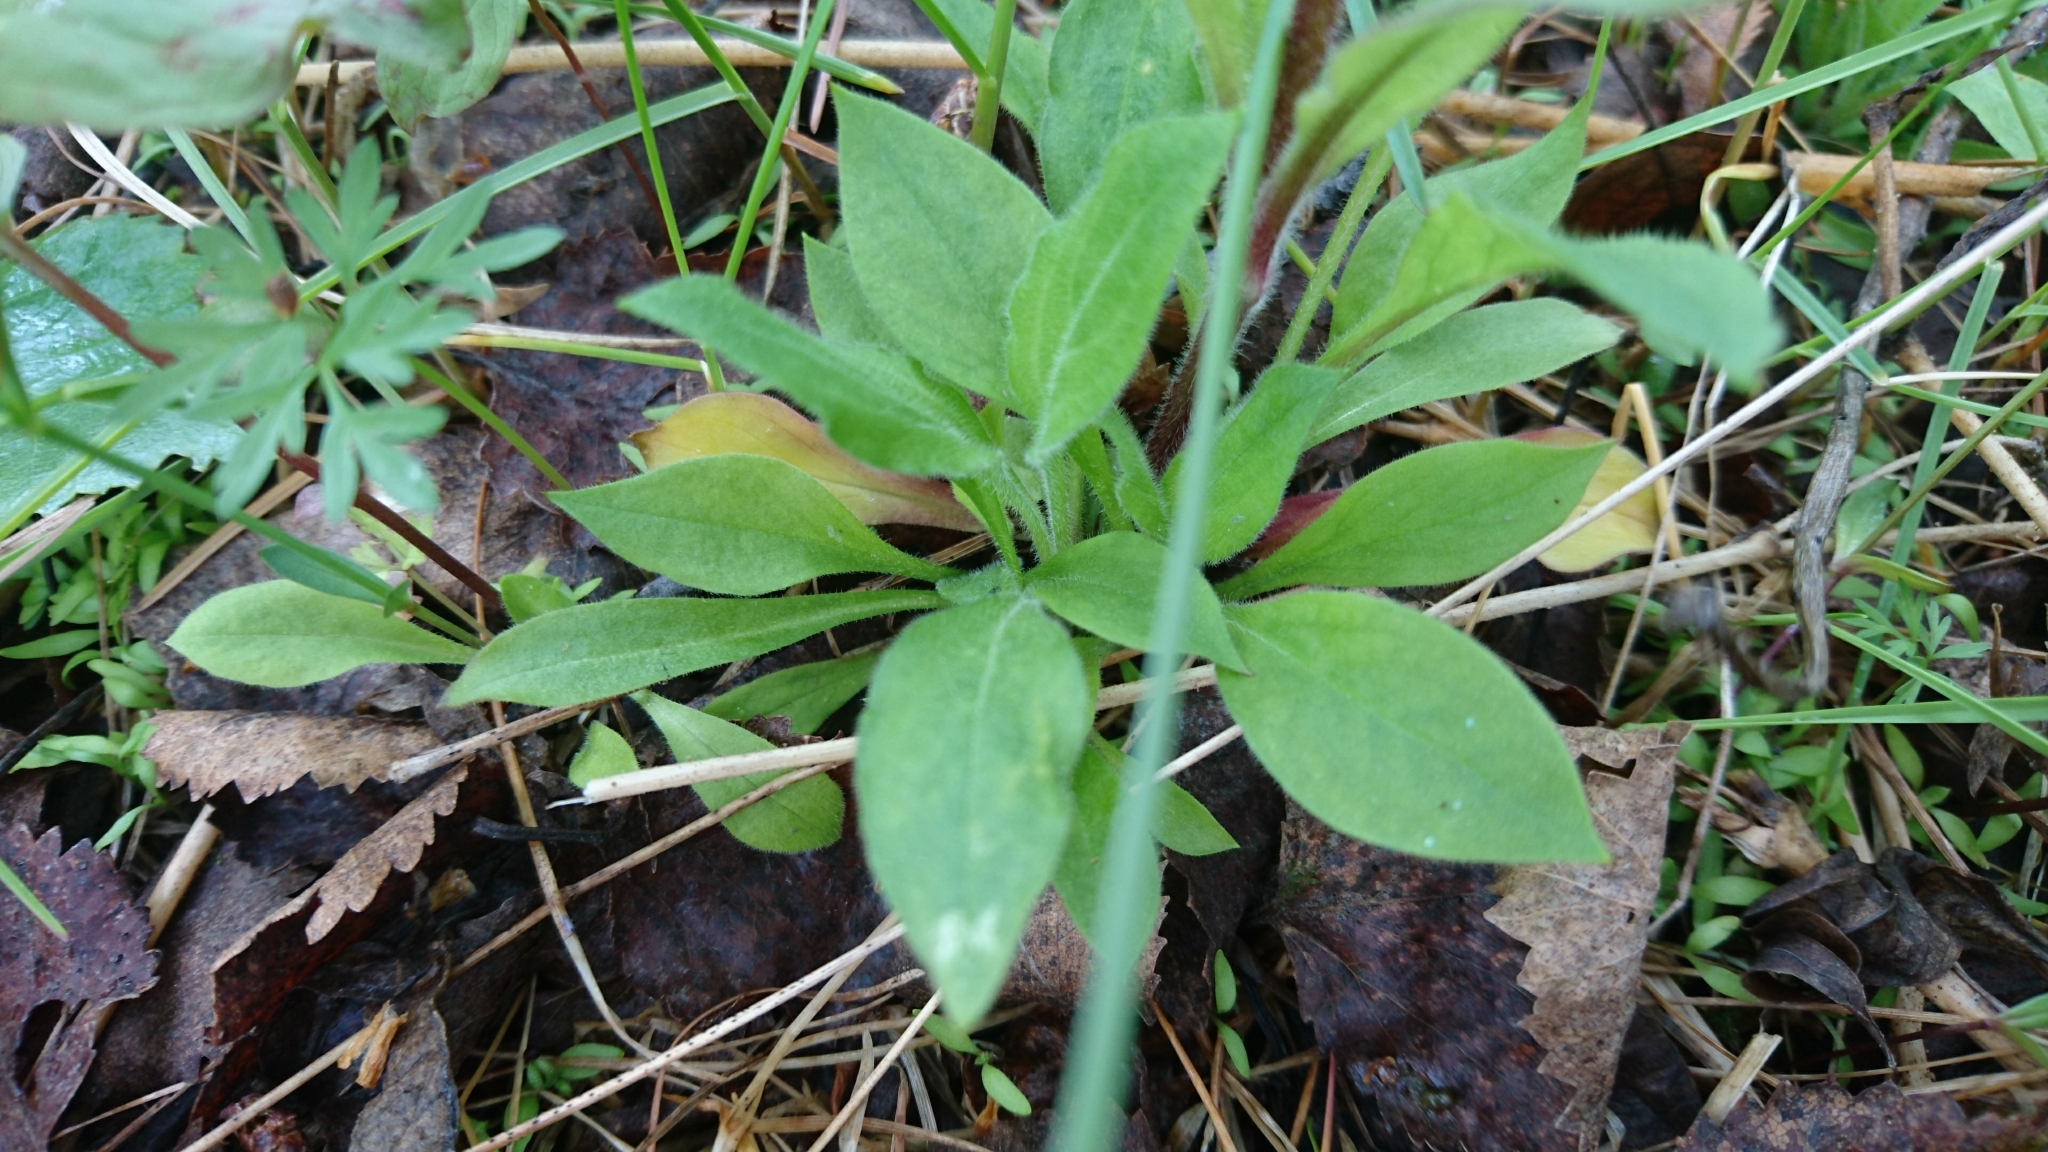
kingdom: Plantae
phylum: Tracheophyta
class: Magnoliopsida
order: Caryophyllales
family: Caryophyllaceae
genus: Silene
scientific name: Silene dioica
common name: Red campion
